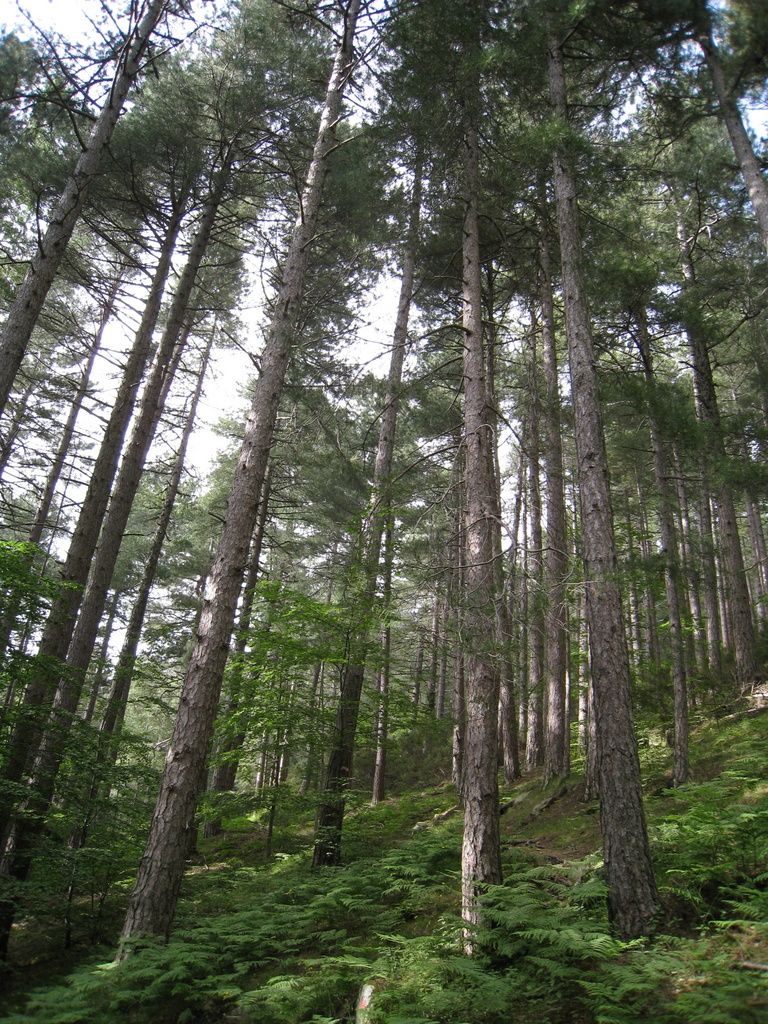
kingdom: Plantae
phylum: Tracheophyta
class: Pinopsida
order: Pinales
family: Pinaceae
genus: Pinus
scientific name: Pinus nigra
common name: Austrian pine
